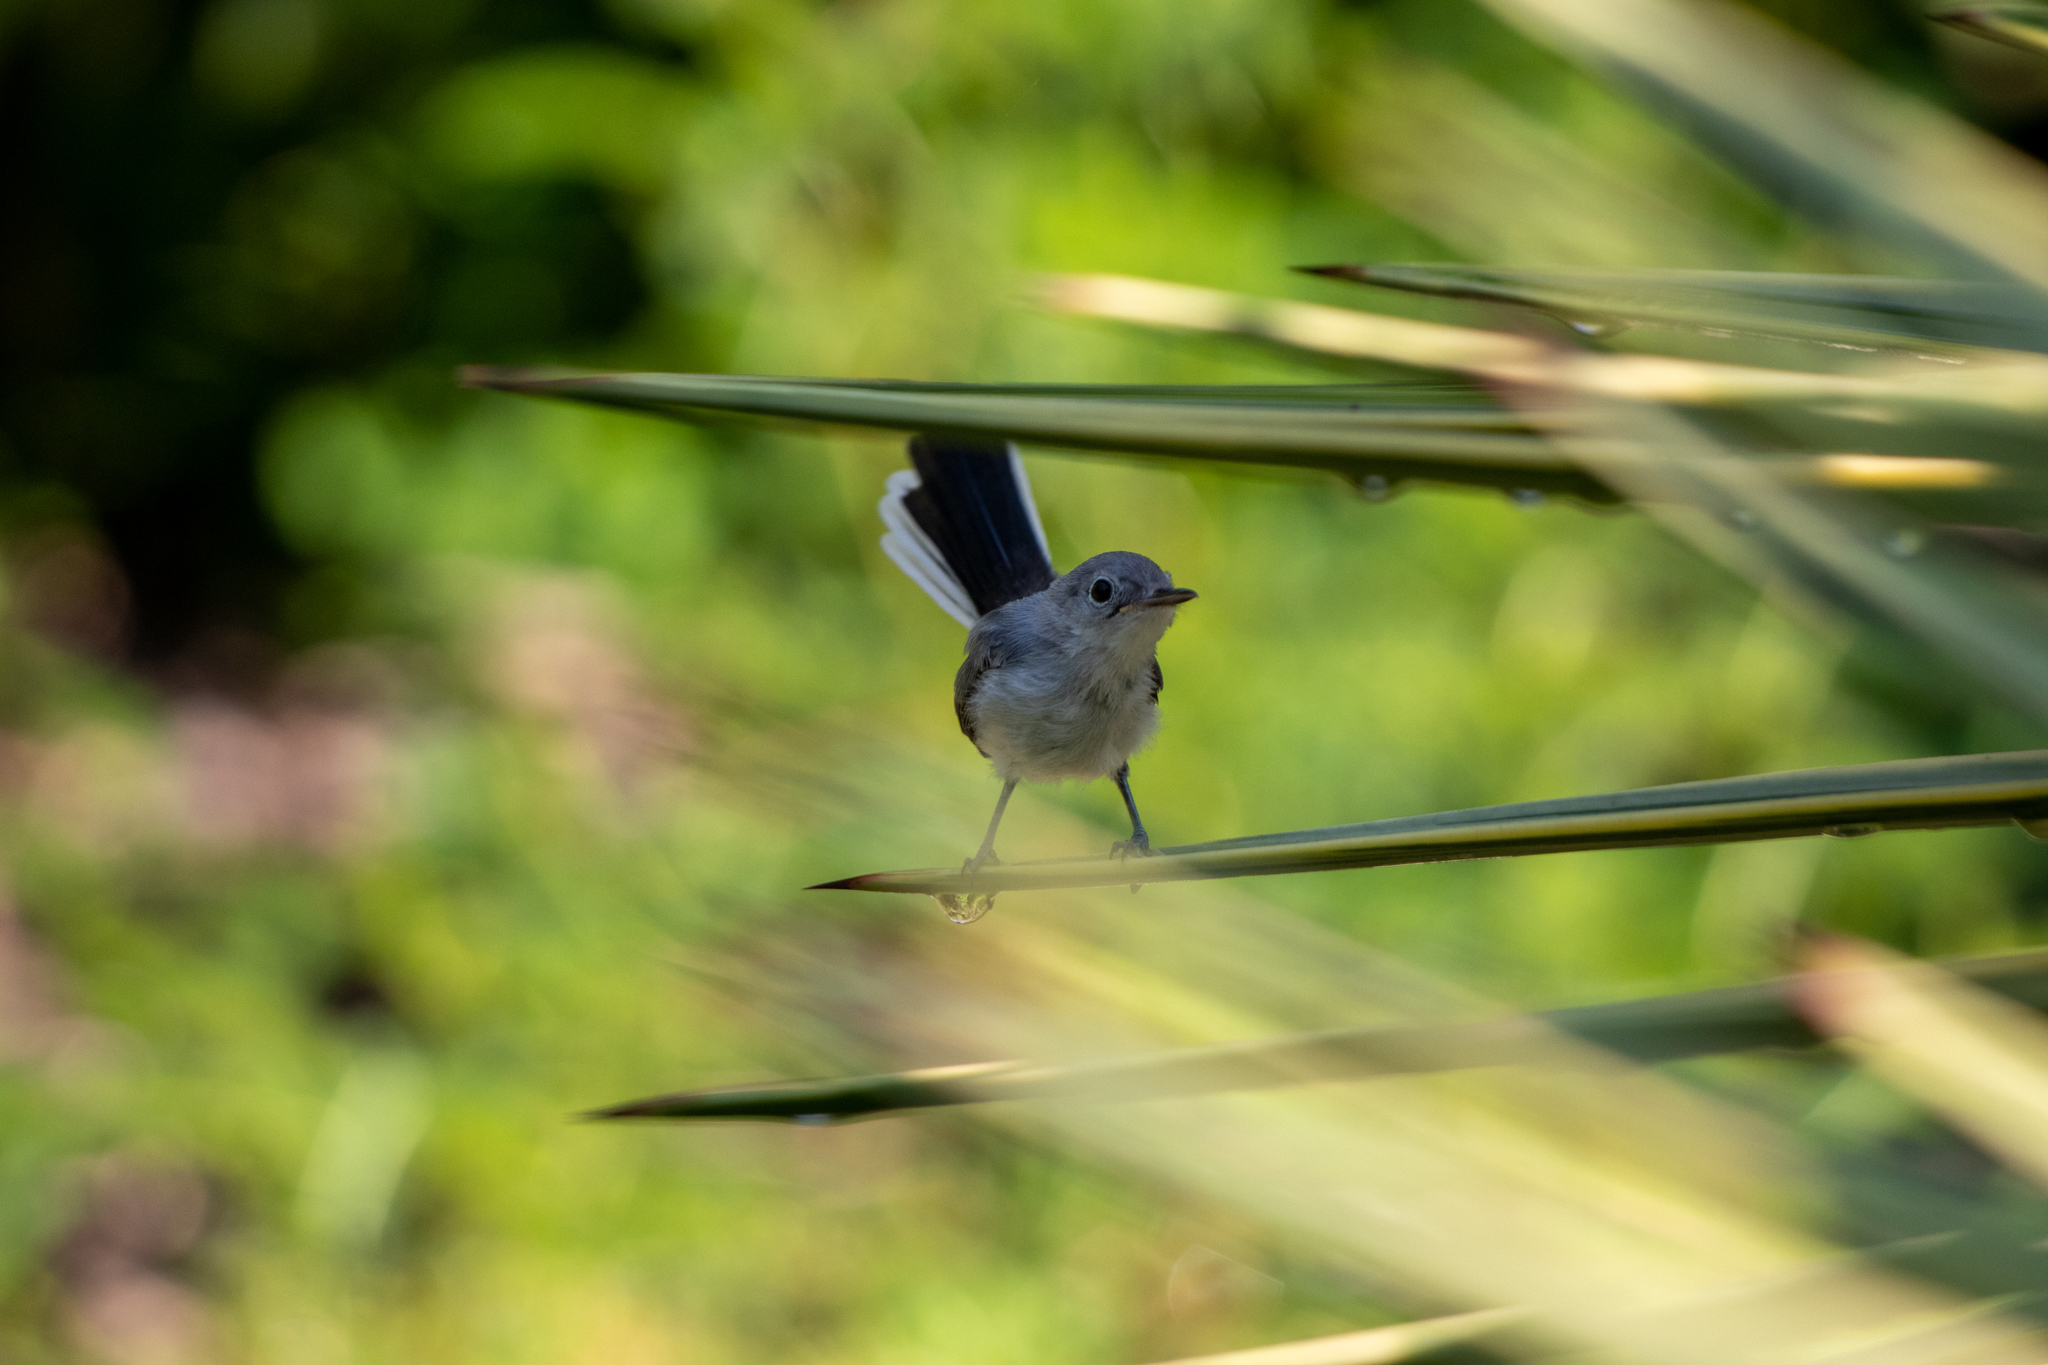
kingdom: Animalia
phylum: Chordata
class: Aves
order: Passeriformes
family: Polioptilidae
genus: Polioptila
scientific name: Polioptila caerulea
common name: Blue-gray gnatcatcher
